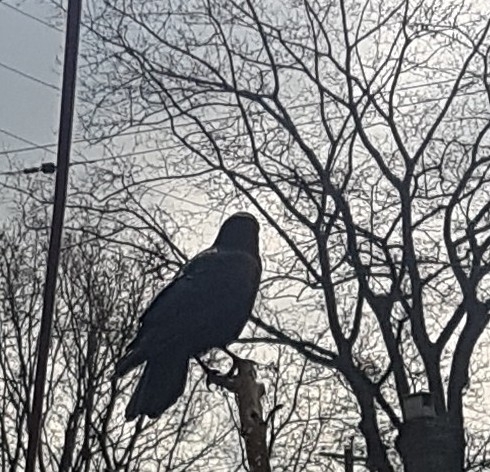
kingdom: Animalia
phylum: Chordata
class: Aves
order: Passeriformes
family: Corvidae
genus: Corvus
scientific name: Corvus brachyrhynchos
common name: American crow
